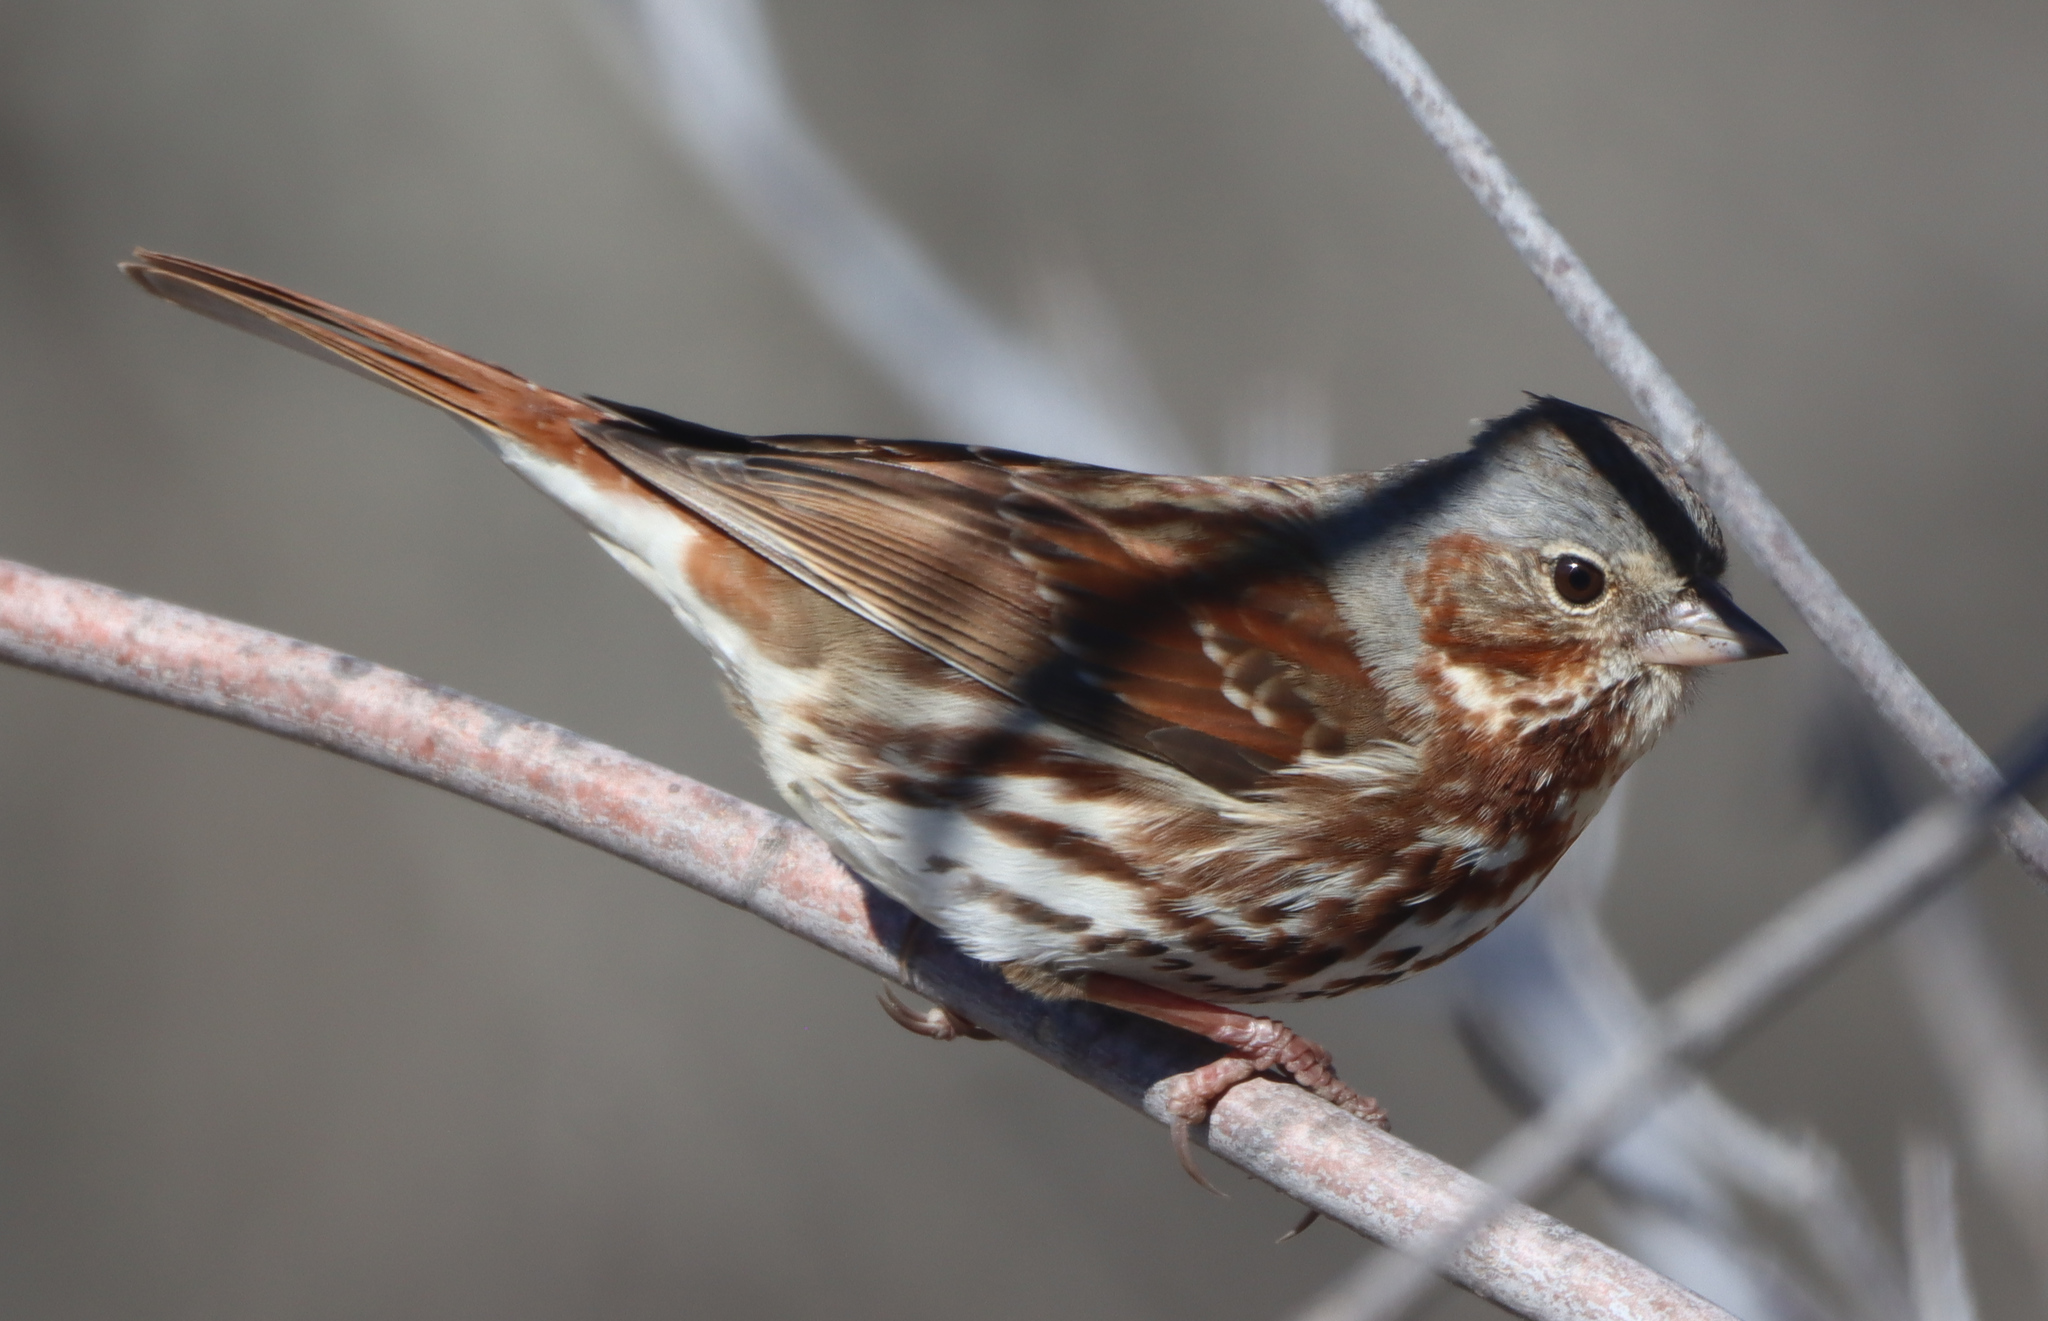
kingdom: Animalia
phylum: Chordata
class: Aves
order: Passeriformes
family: Passerellidae
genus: Passerella
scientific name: Passerella iliaca
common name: Fox sparrow
